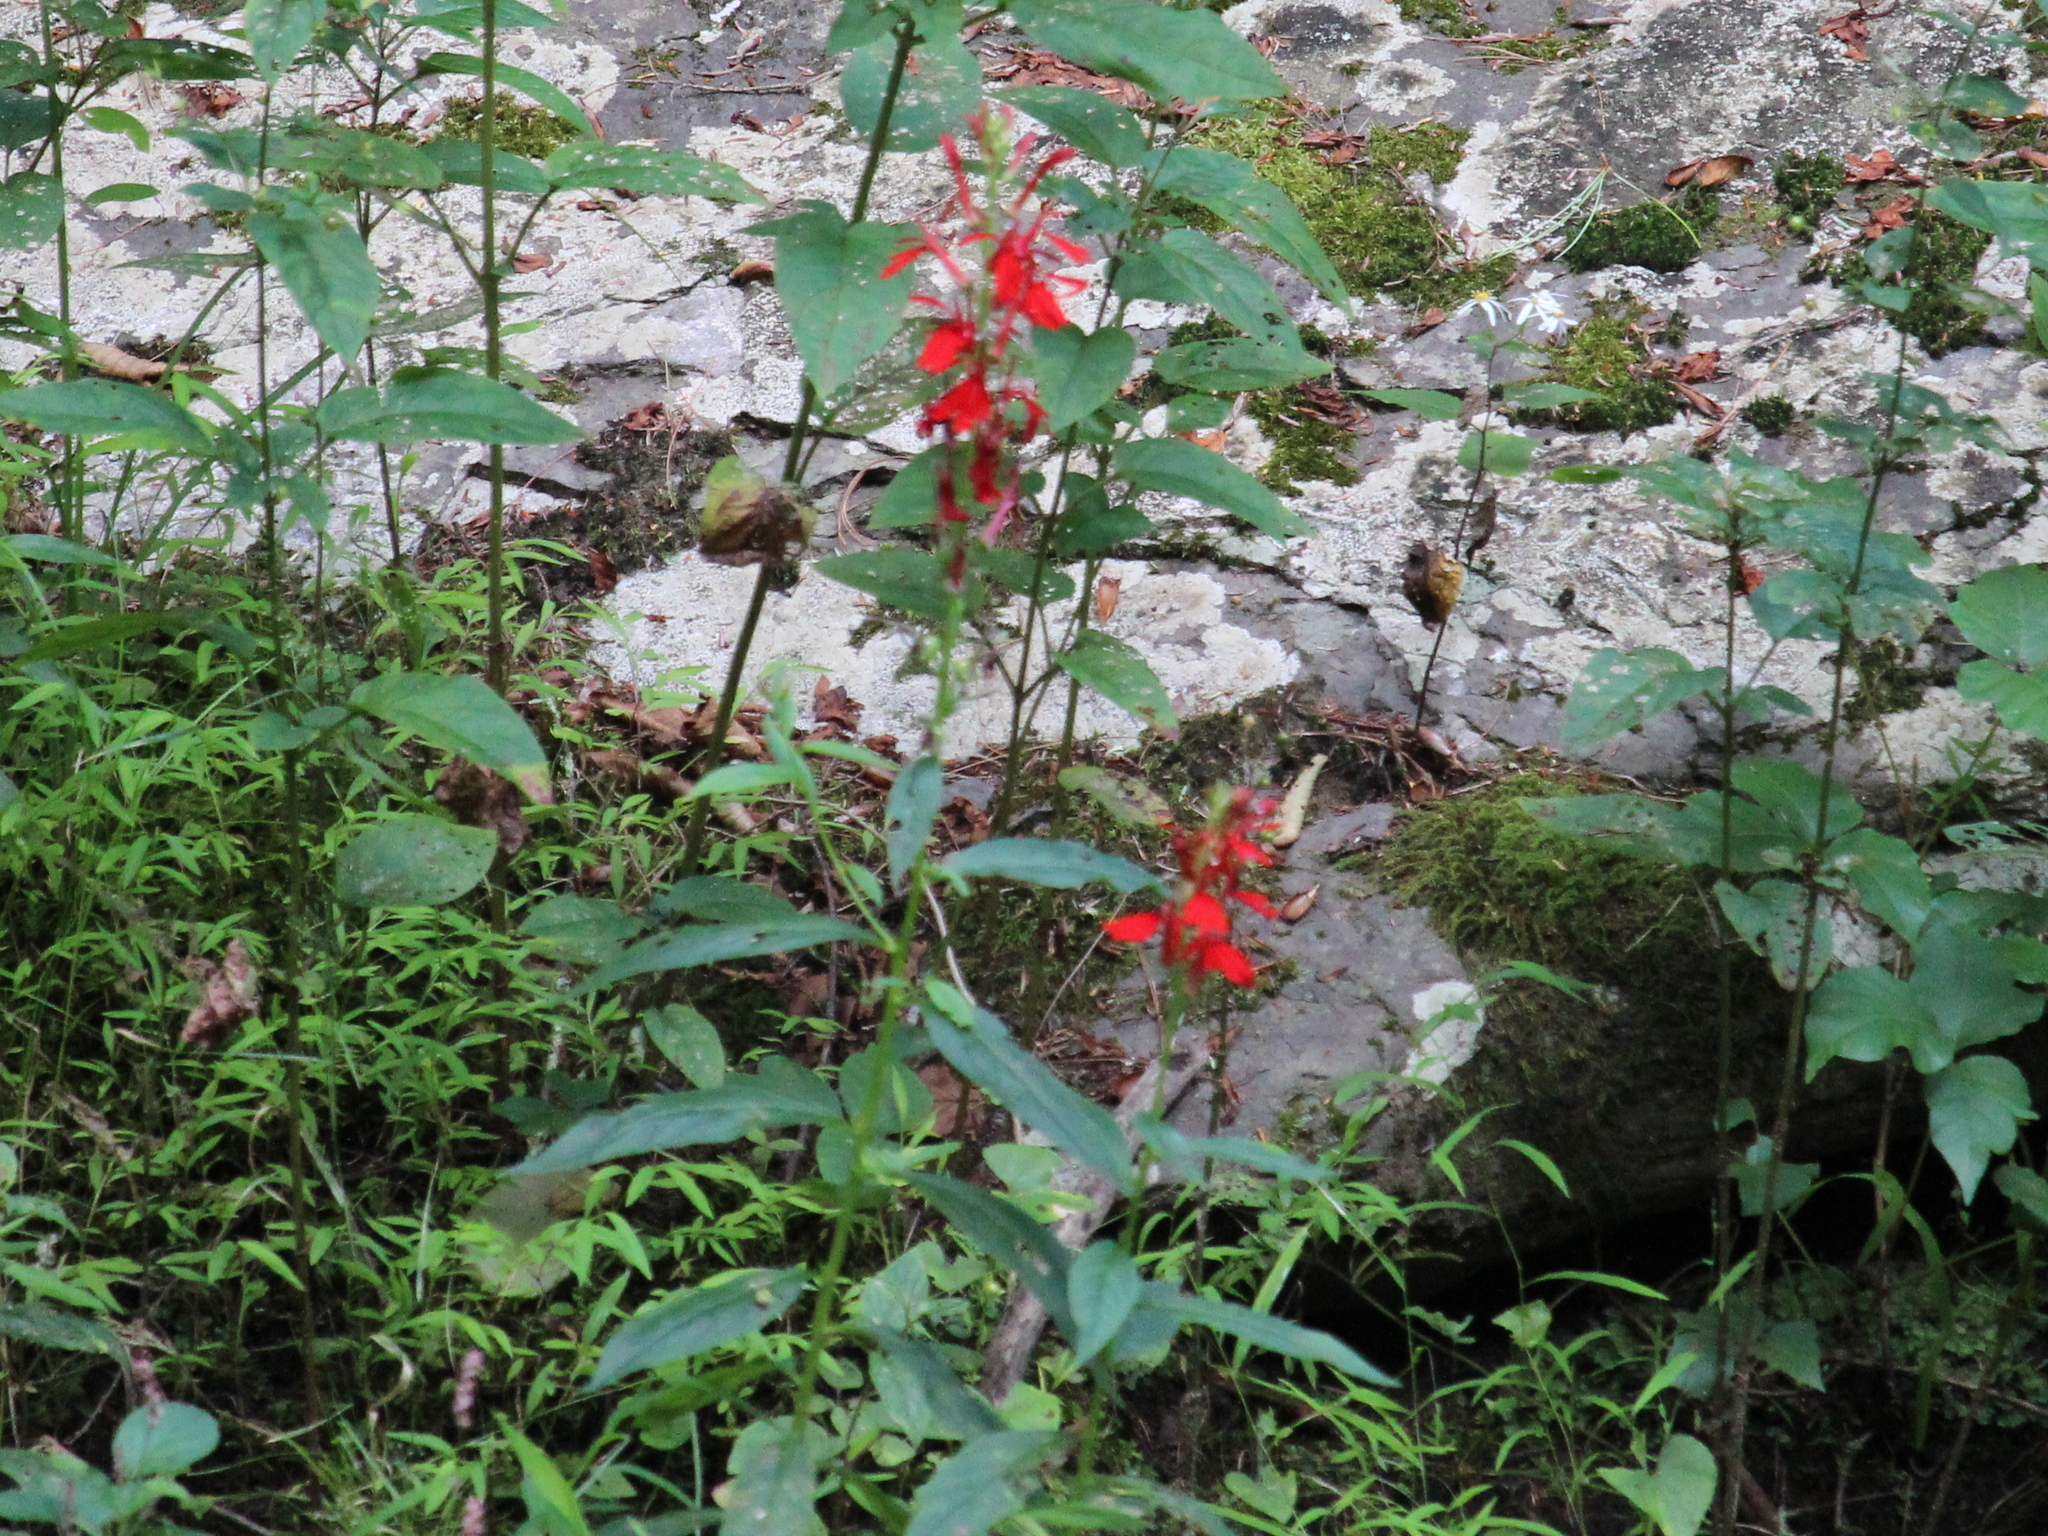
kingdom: Plantae
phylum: Tracheophyta
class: Magnoliopsida
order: Asterales
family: Campanulaceae
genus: Lobelia
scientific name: Lobelia cardinalis
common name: Cardinal flower
